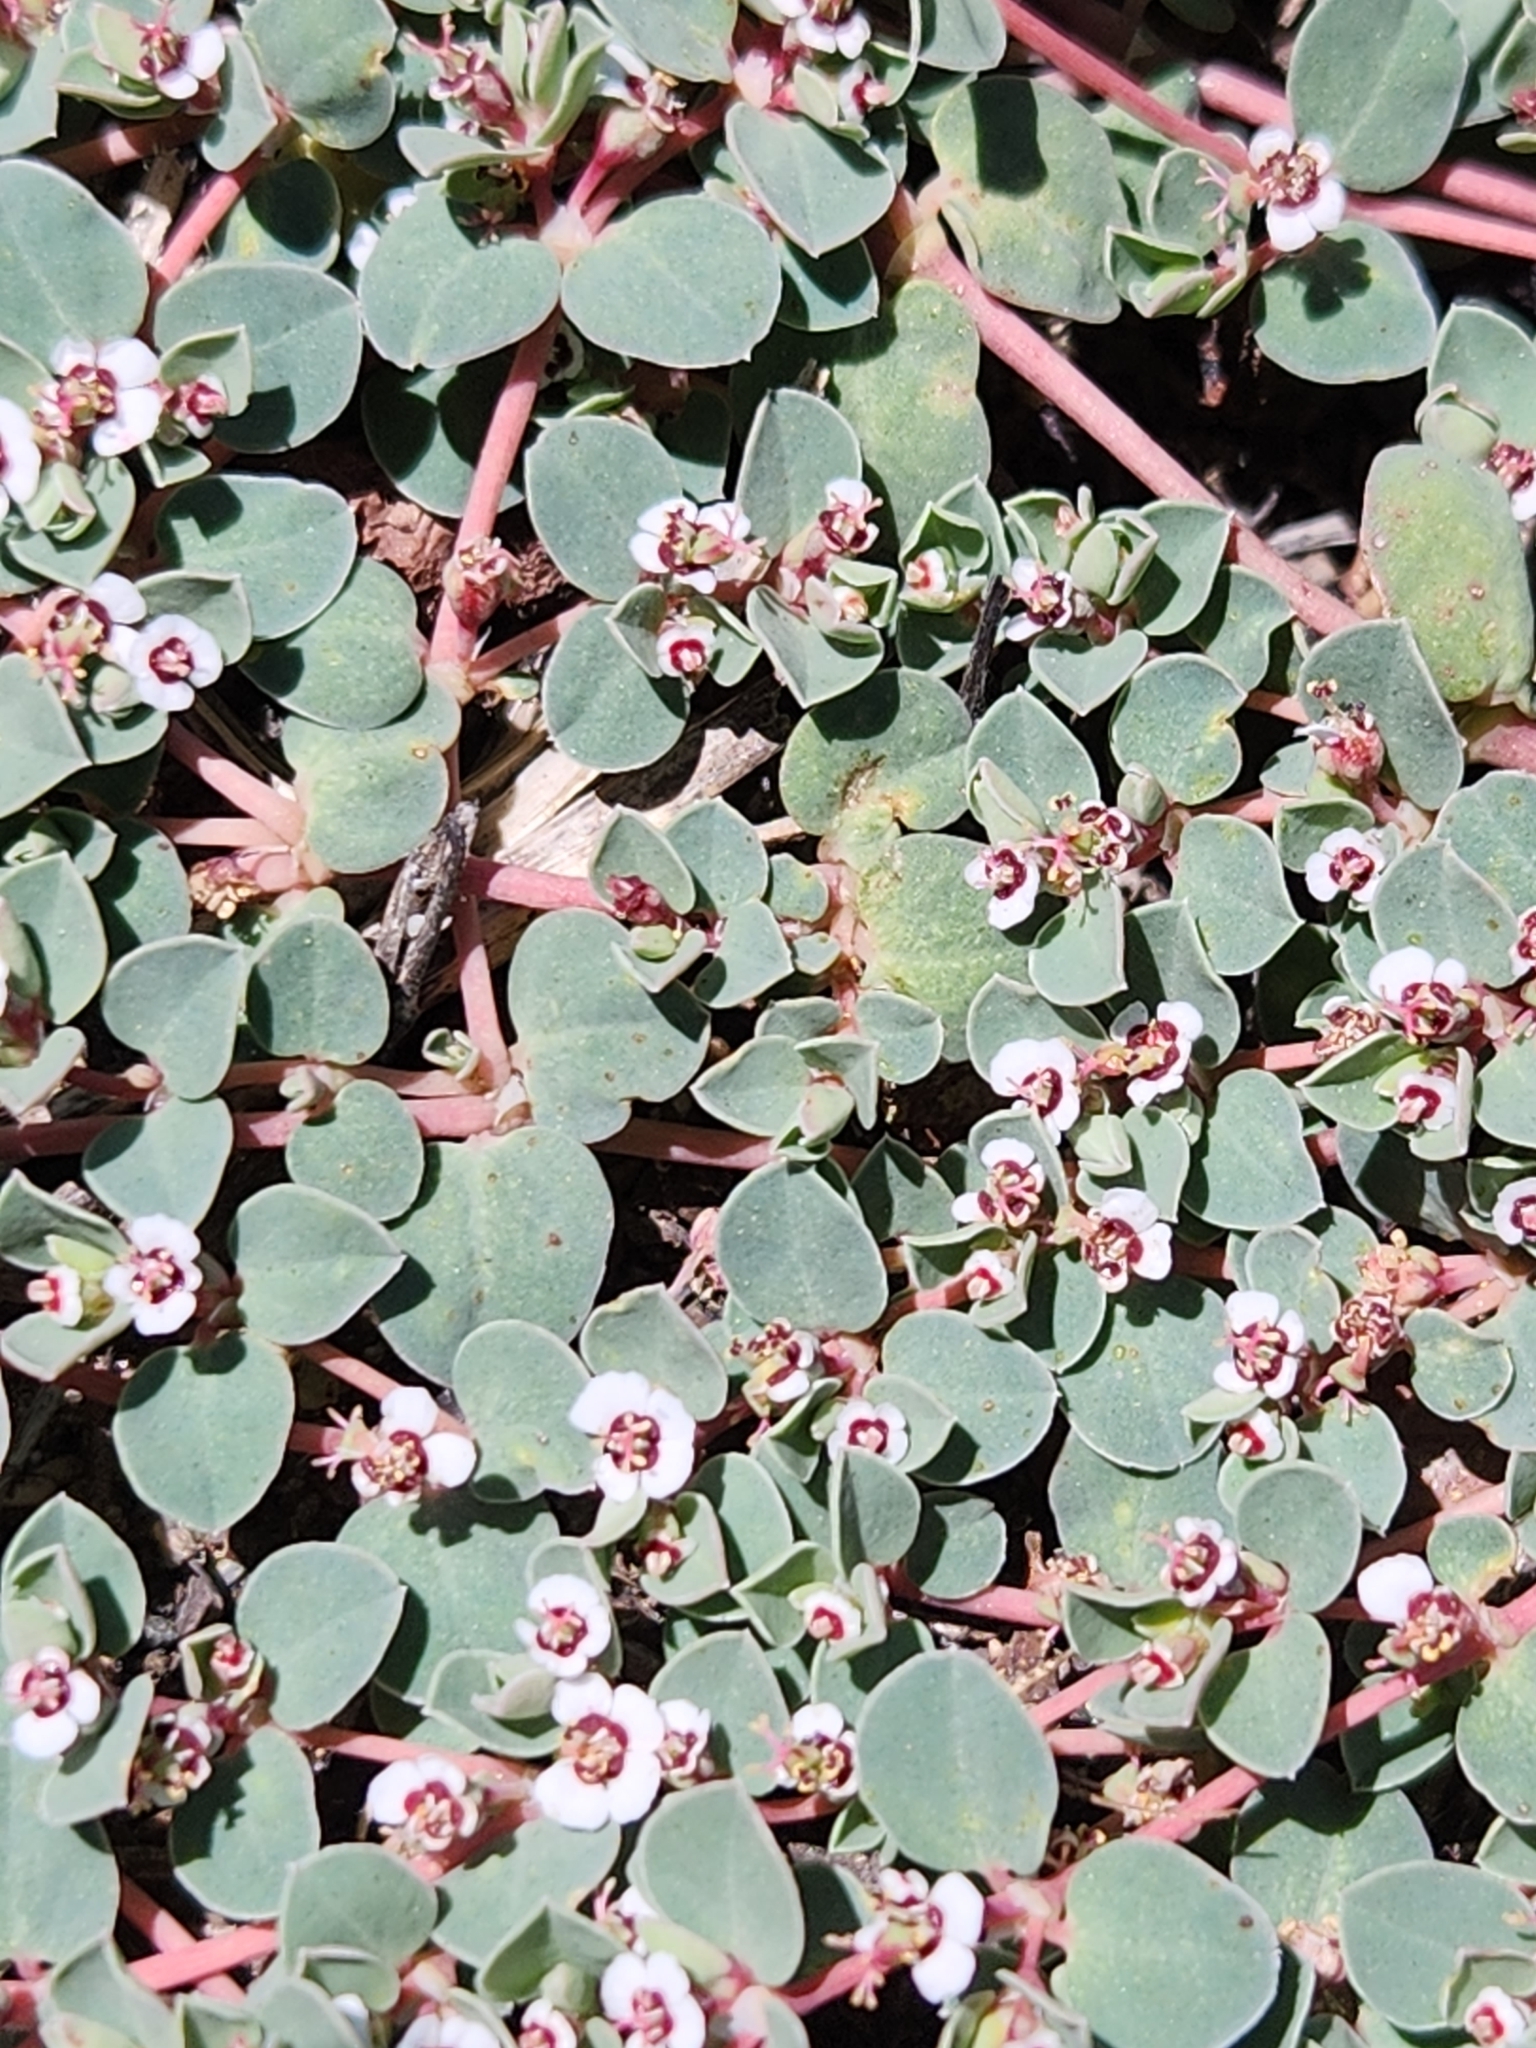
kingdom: Plantae
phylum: Tracheophyta
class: Magnoliopsida
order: Malpighiales
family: Euphorbiaceae
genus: Euphorbia
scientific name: Euphorbia albomarginata
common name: Whitemargin sandmat
